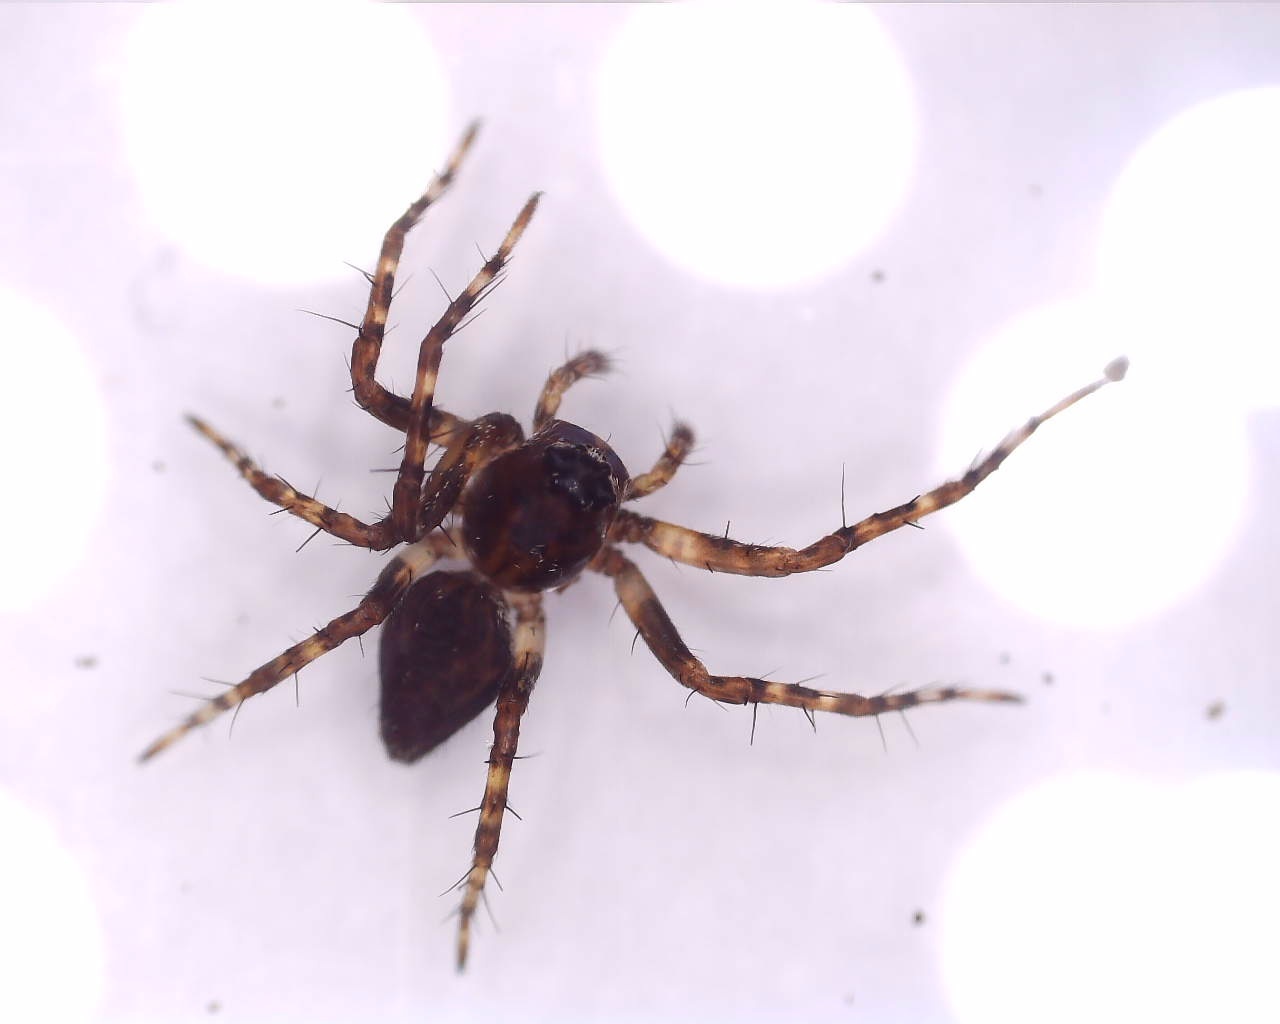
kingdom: Animalia
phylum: Arthropoda
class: Arachnida
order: Araneae
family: Oxyopidae
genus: Oxyopes
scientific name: Oxyopes ramosus
